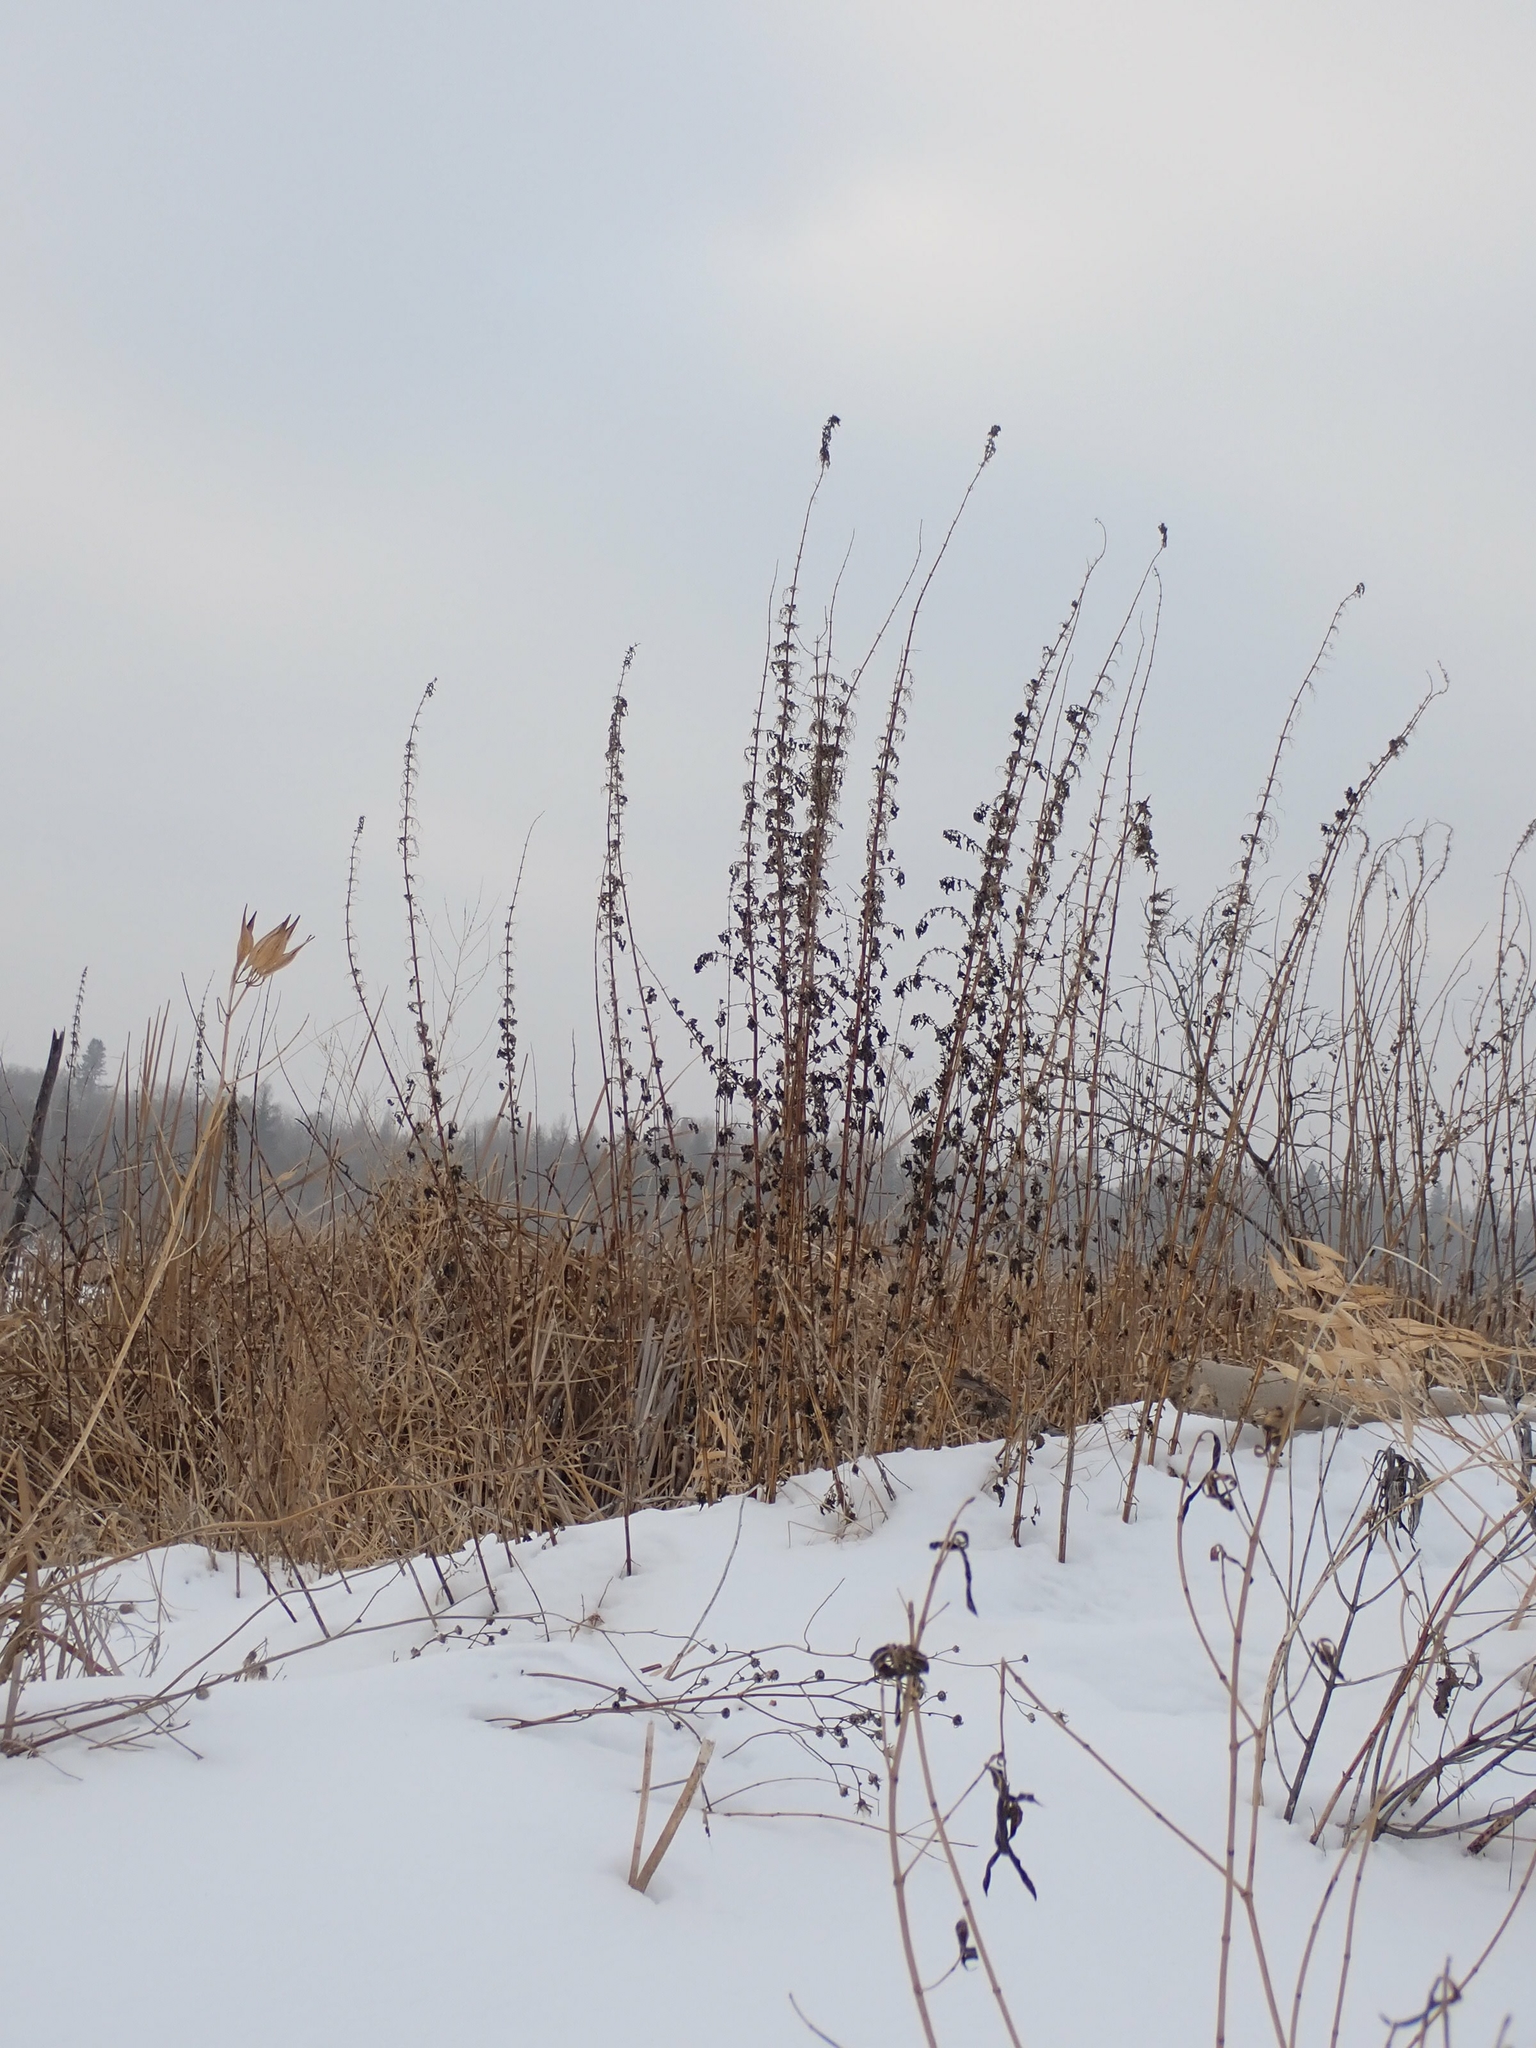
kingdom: Plantae
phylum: Tracheophyta
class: Magnoliopsida
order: Rosales
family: Urticaceae
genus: Urtica
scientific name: Urtica gracilis
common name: Slender stinging nettle
